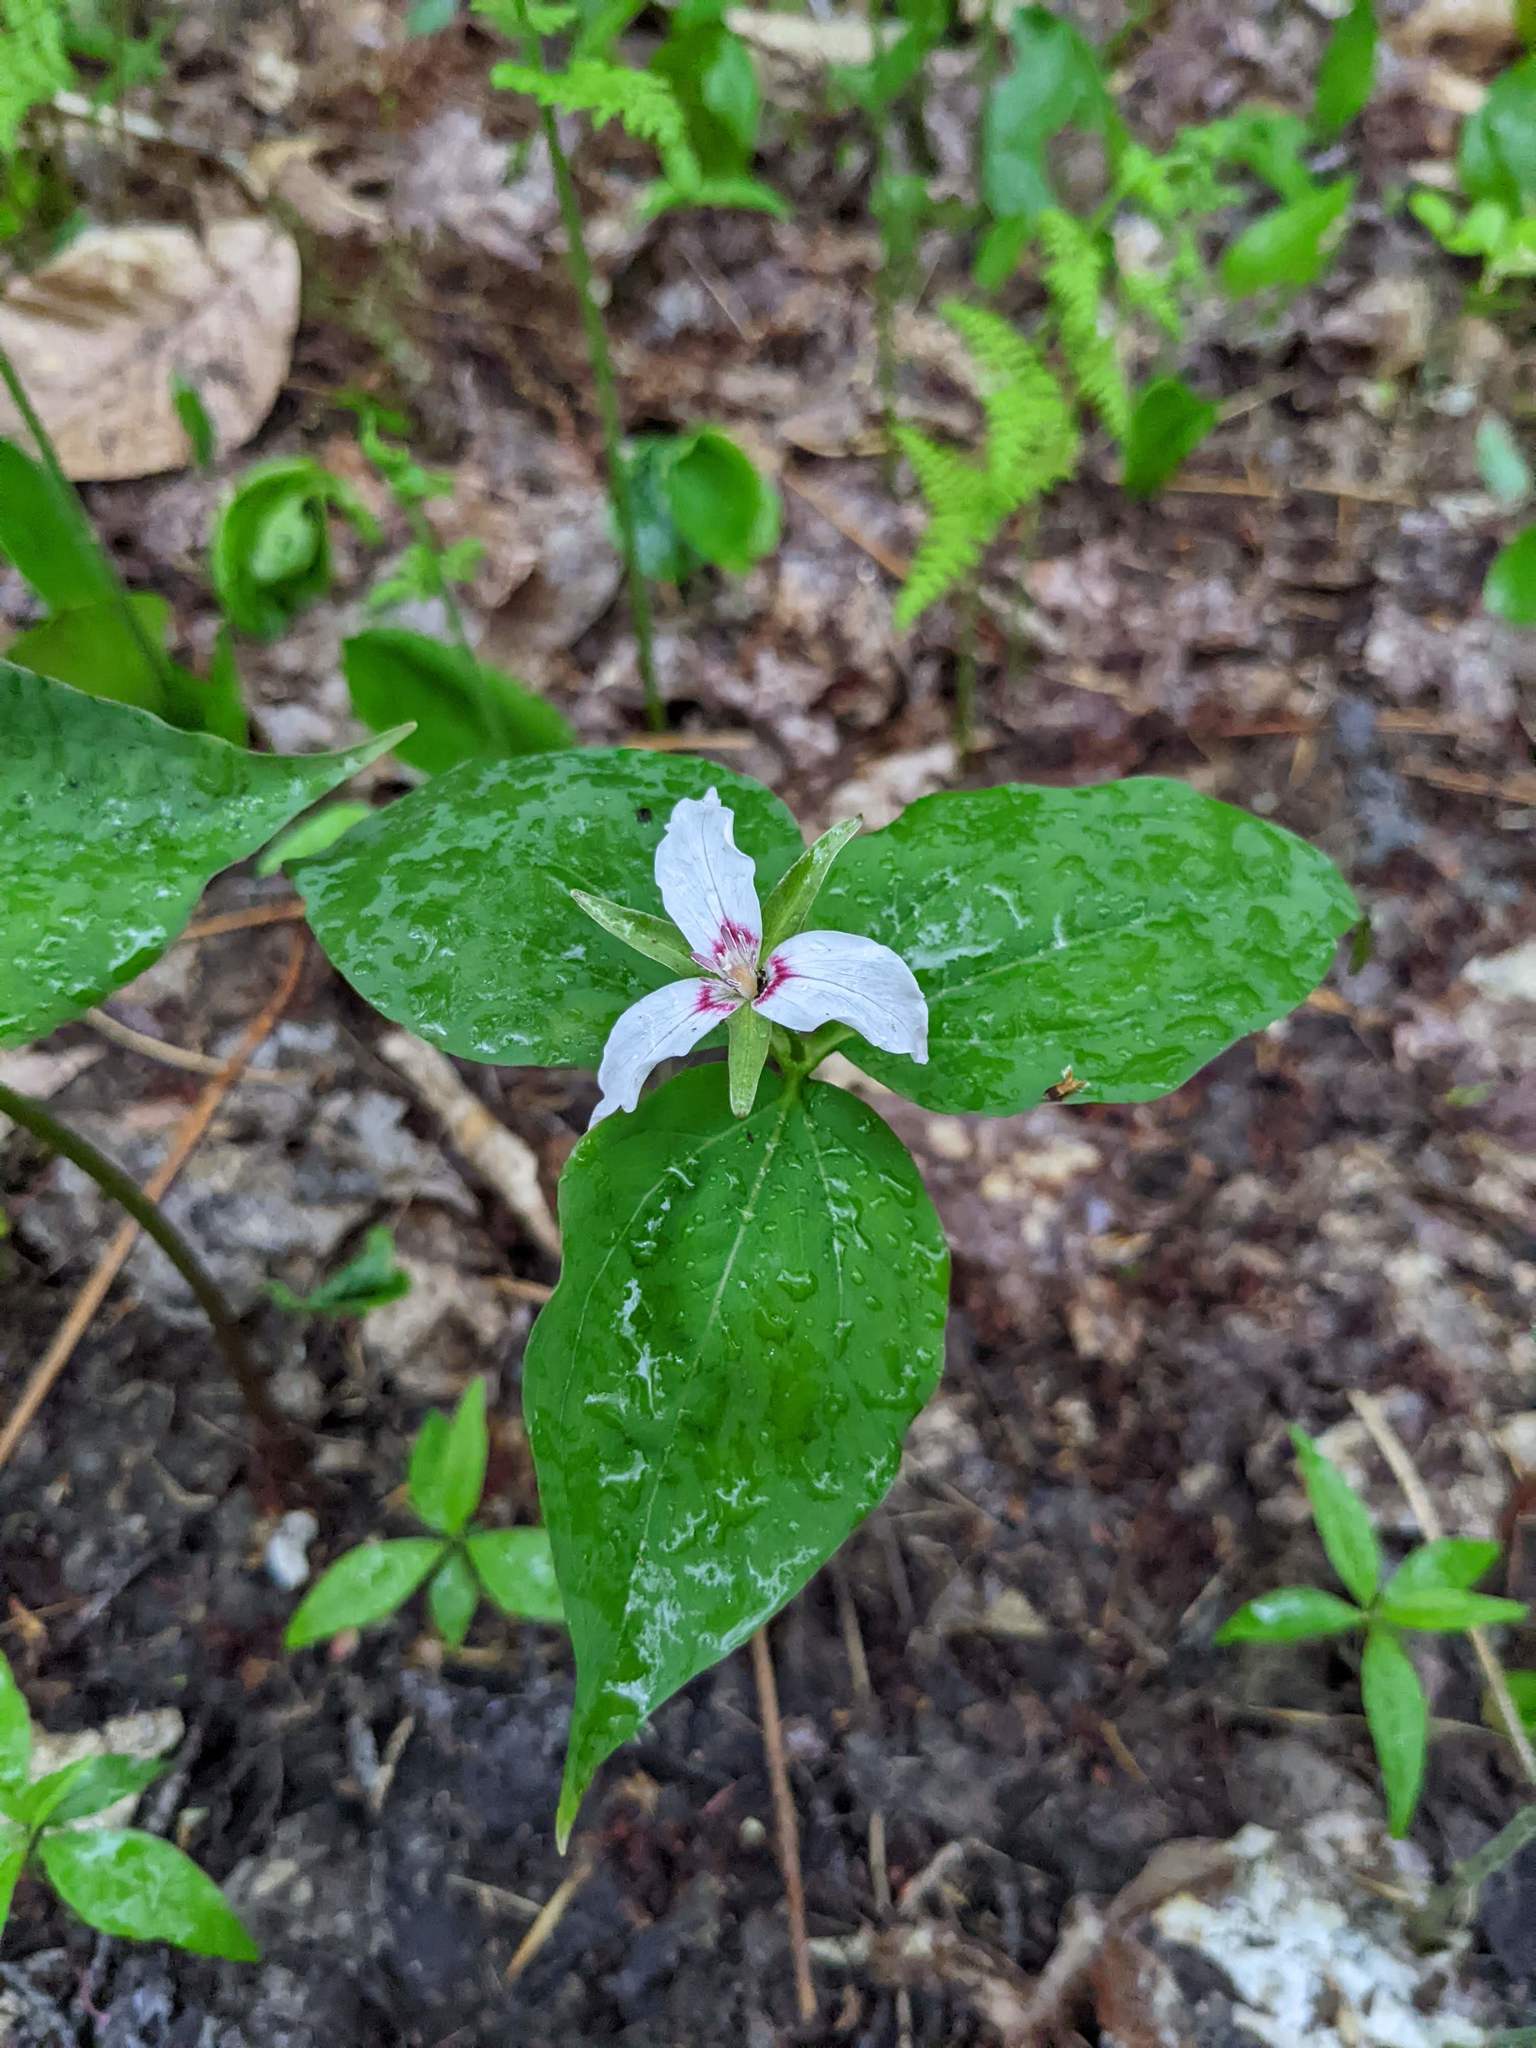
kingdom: Plantae
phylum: Tracheophyta
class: Liliopsida
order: Liliales
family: Melanthiaceae
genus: Trillium
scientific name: Trillium undulatum
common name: Paint trillium
